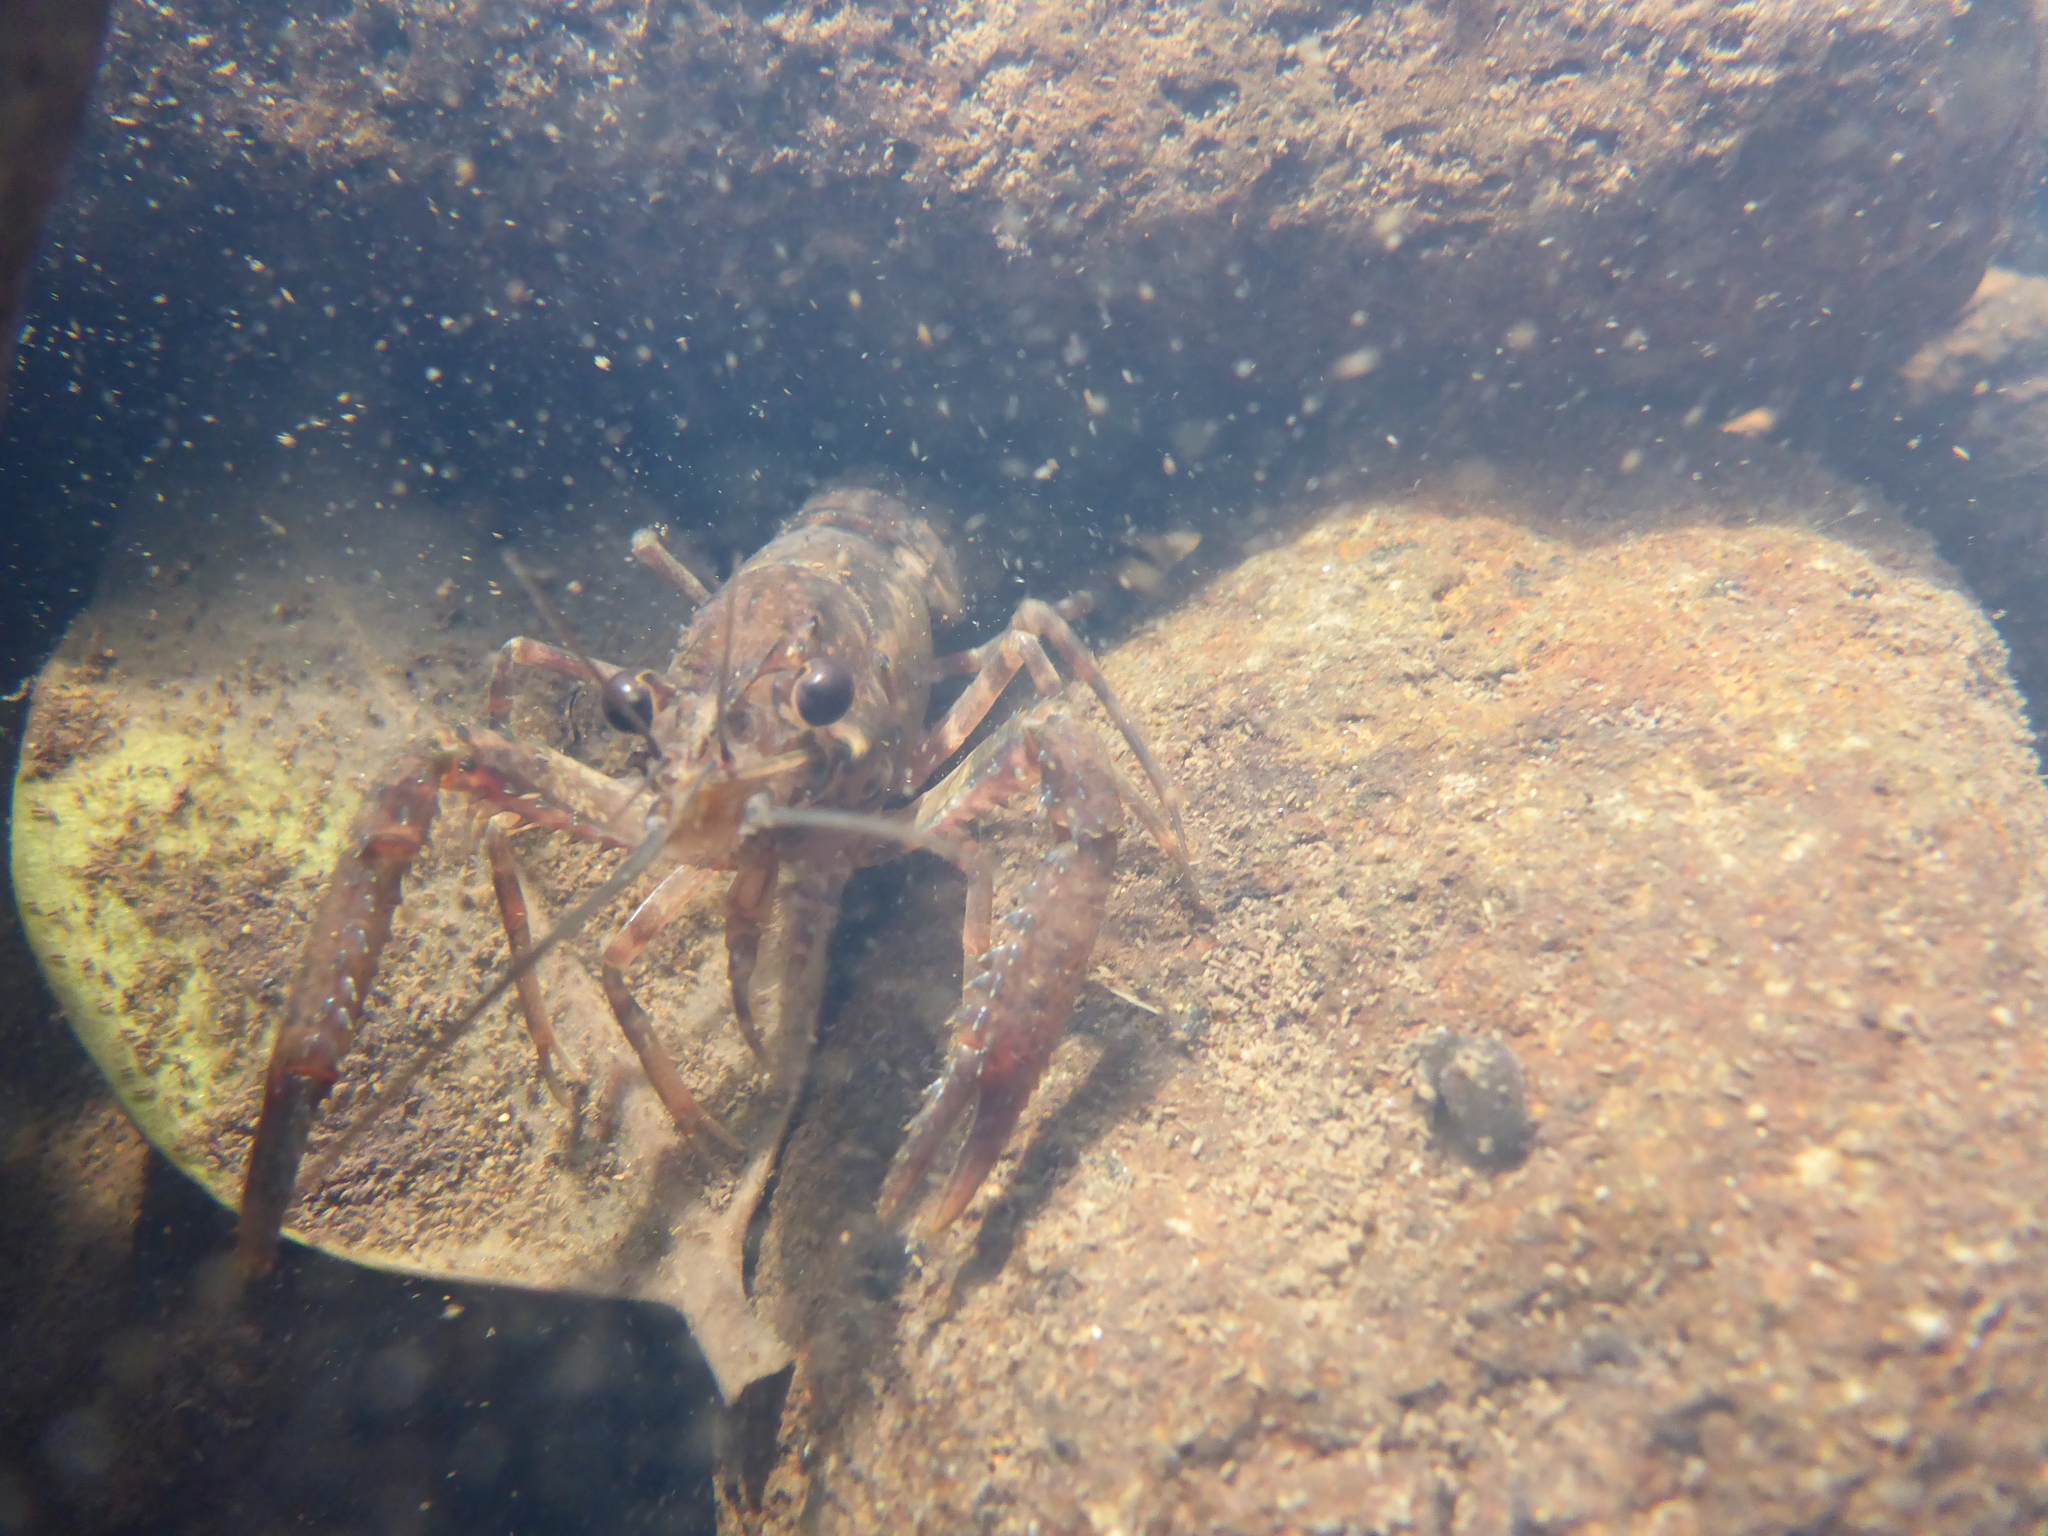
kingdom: Animalia
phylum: Arthropoda
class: Malacostraca
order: Decapoda
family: Parastacidae
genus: Paranephrops
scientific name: Paranephrops planifrons
